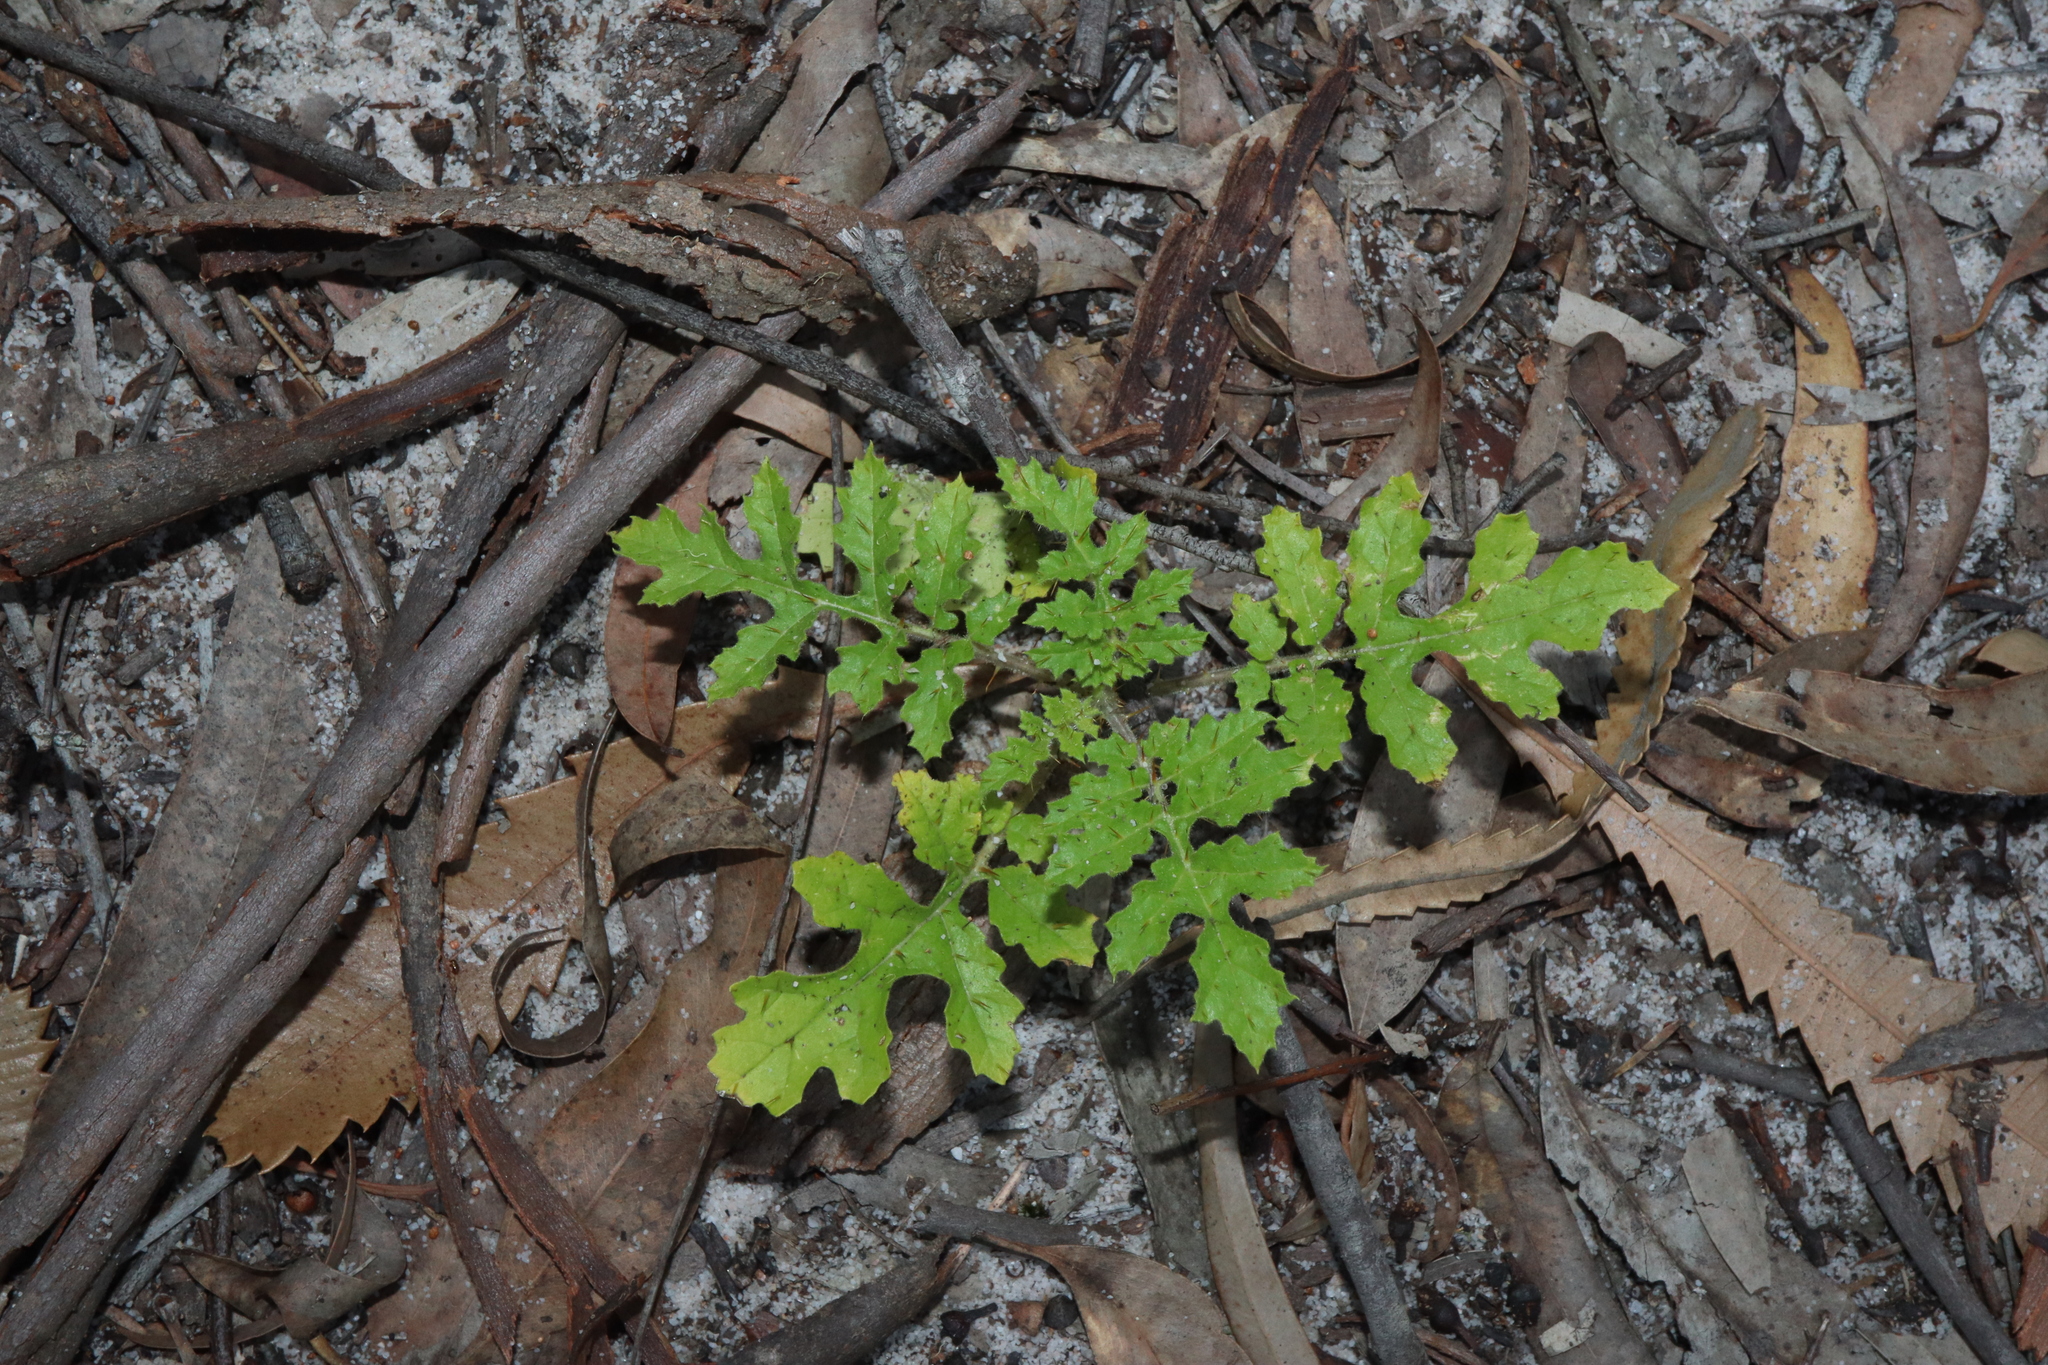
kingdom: Plantae
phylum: Tracheophyta
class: Magnoliopsida
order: Solanales
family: Solanaceae
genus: Solanum
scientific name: Solanum sisymbriifolium
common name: Red buffalo-bur
